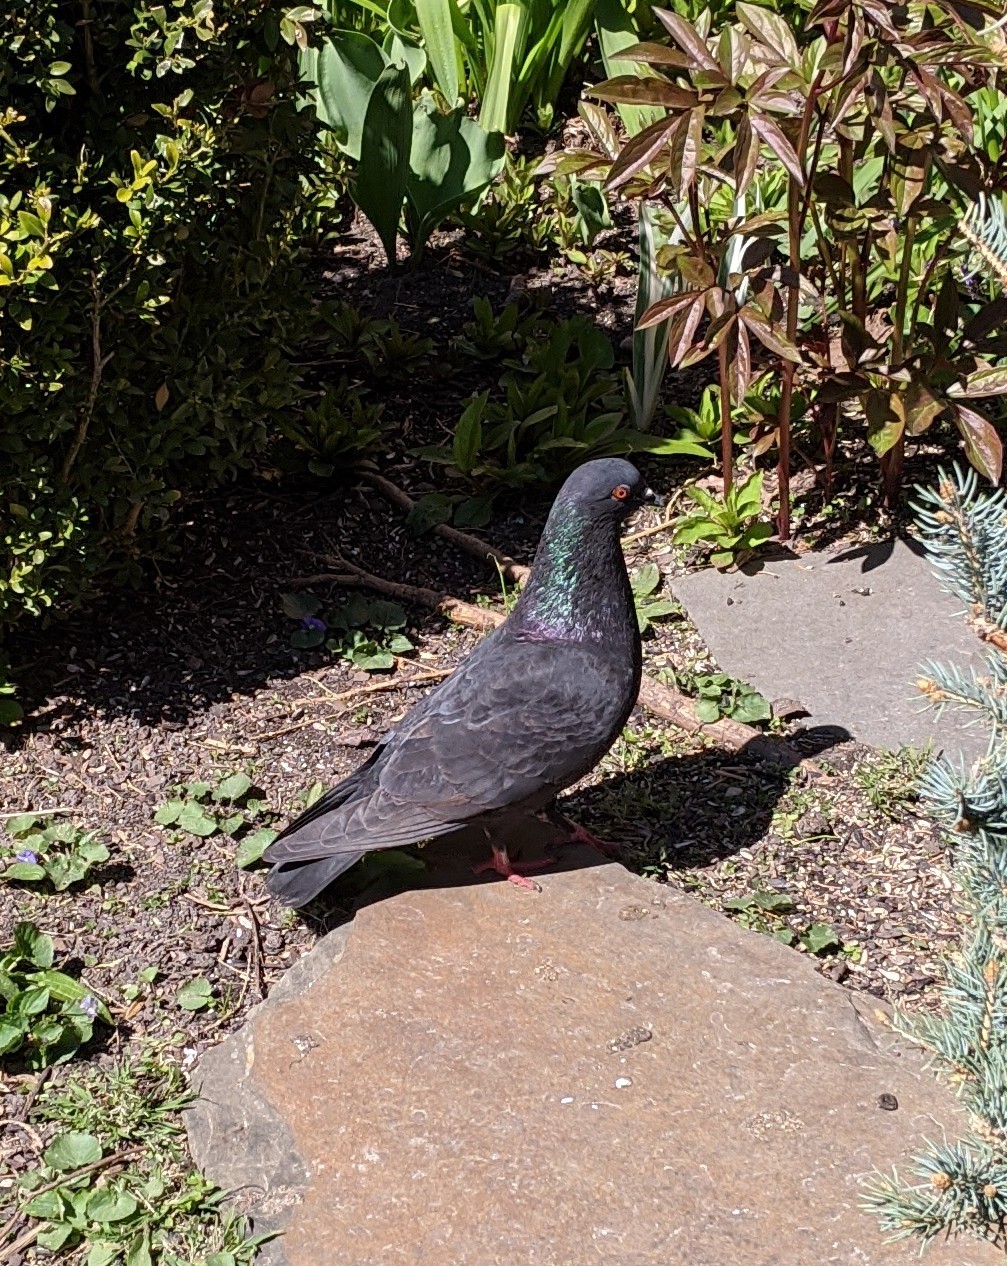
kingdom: Animalia
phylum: Chordata
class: Aves
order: Columbiformes
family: Columbidae
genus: Columba
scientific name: Columba livia
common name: Rock pigeon
